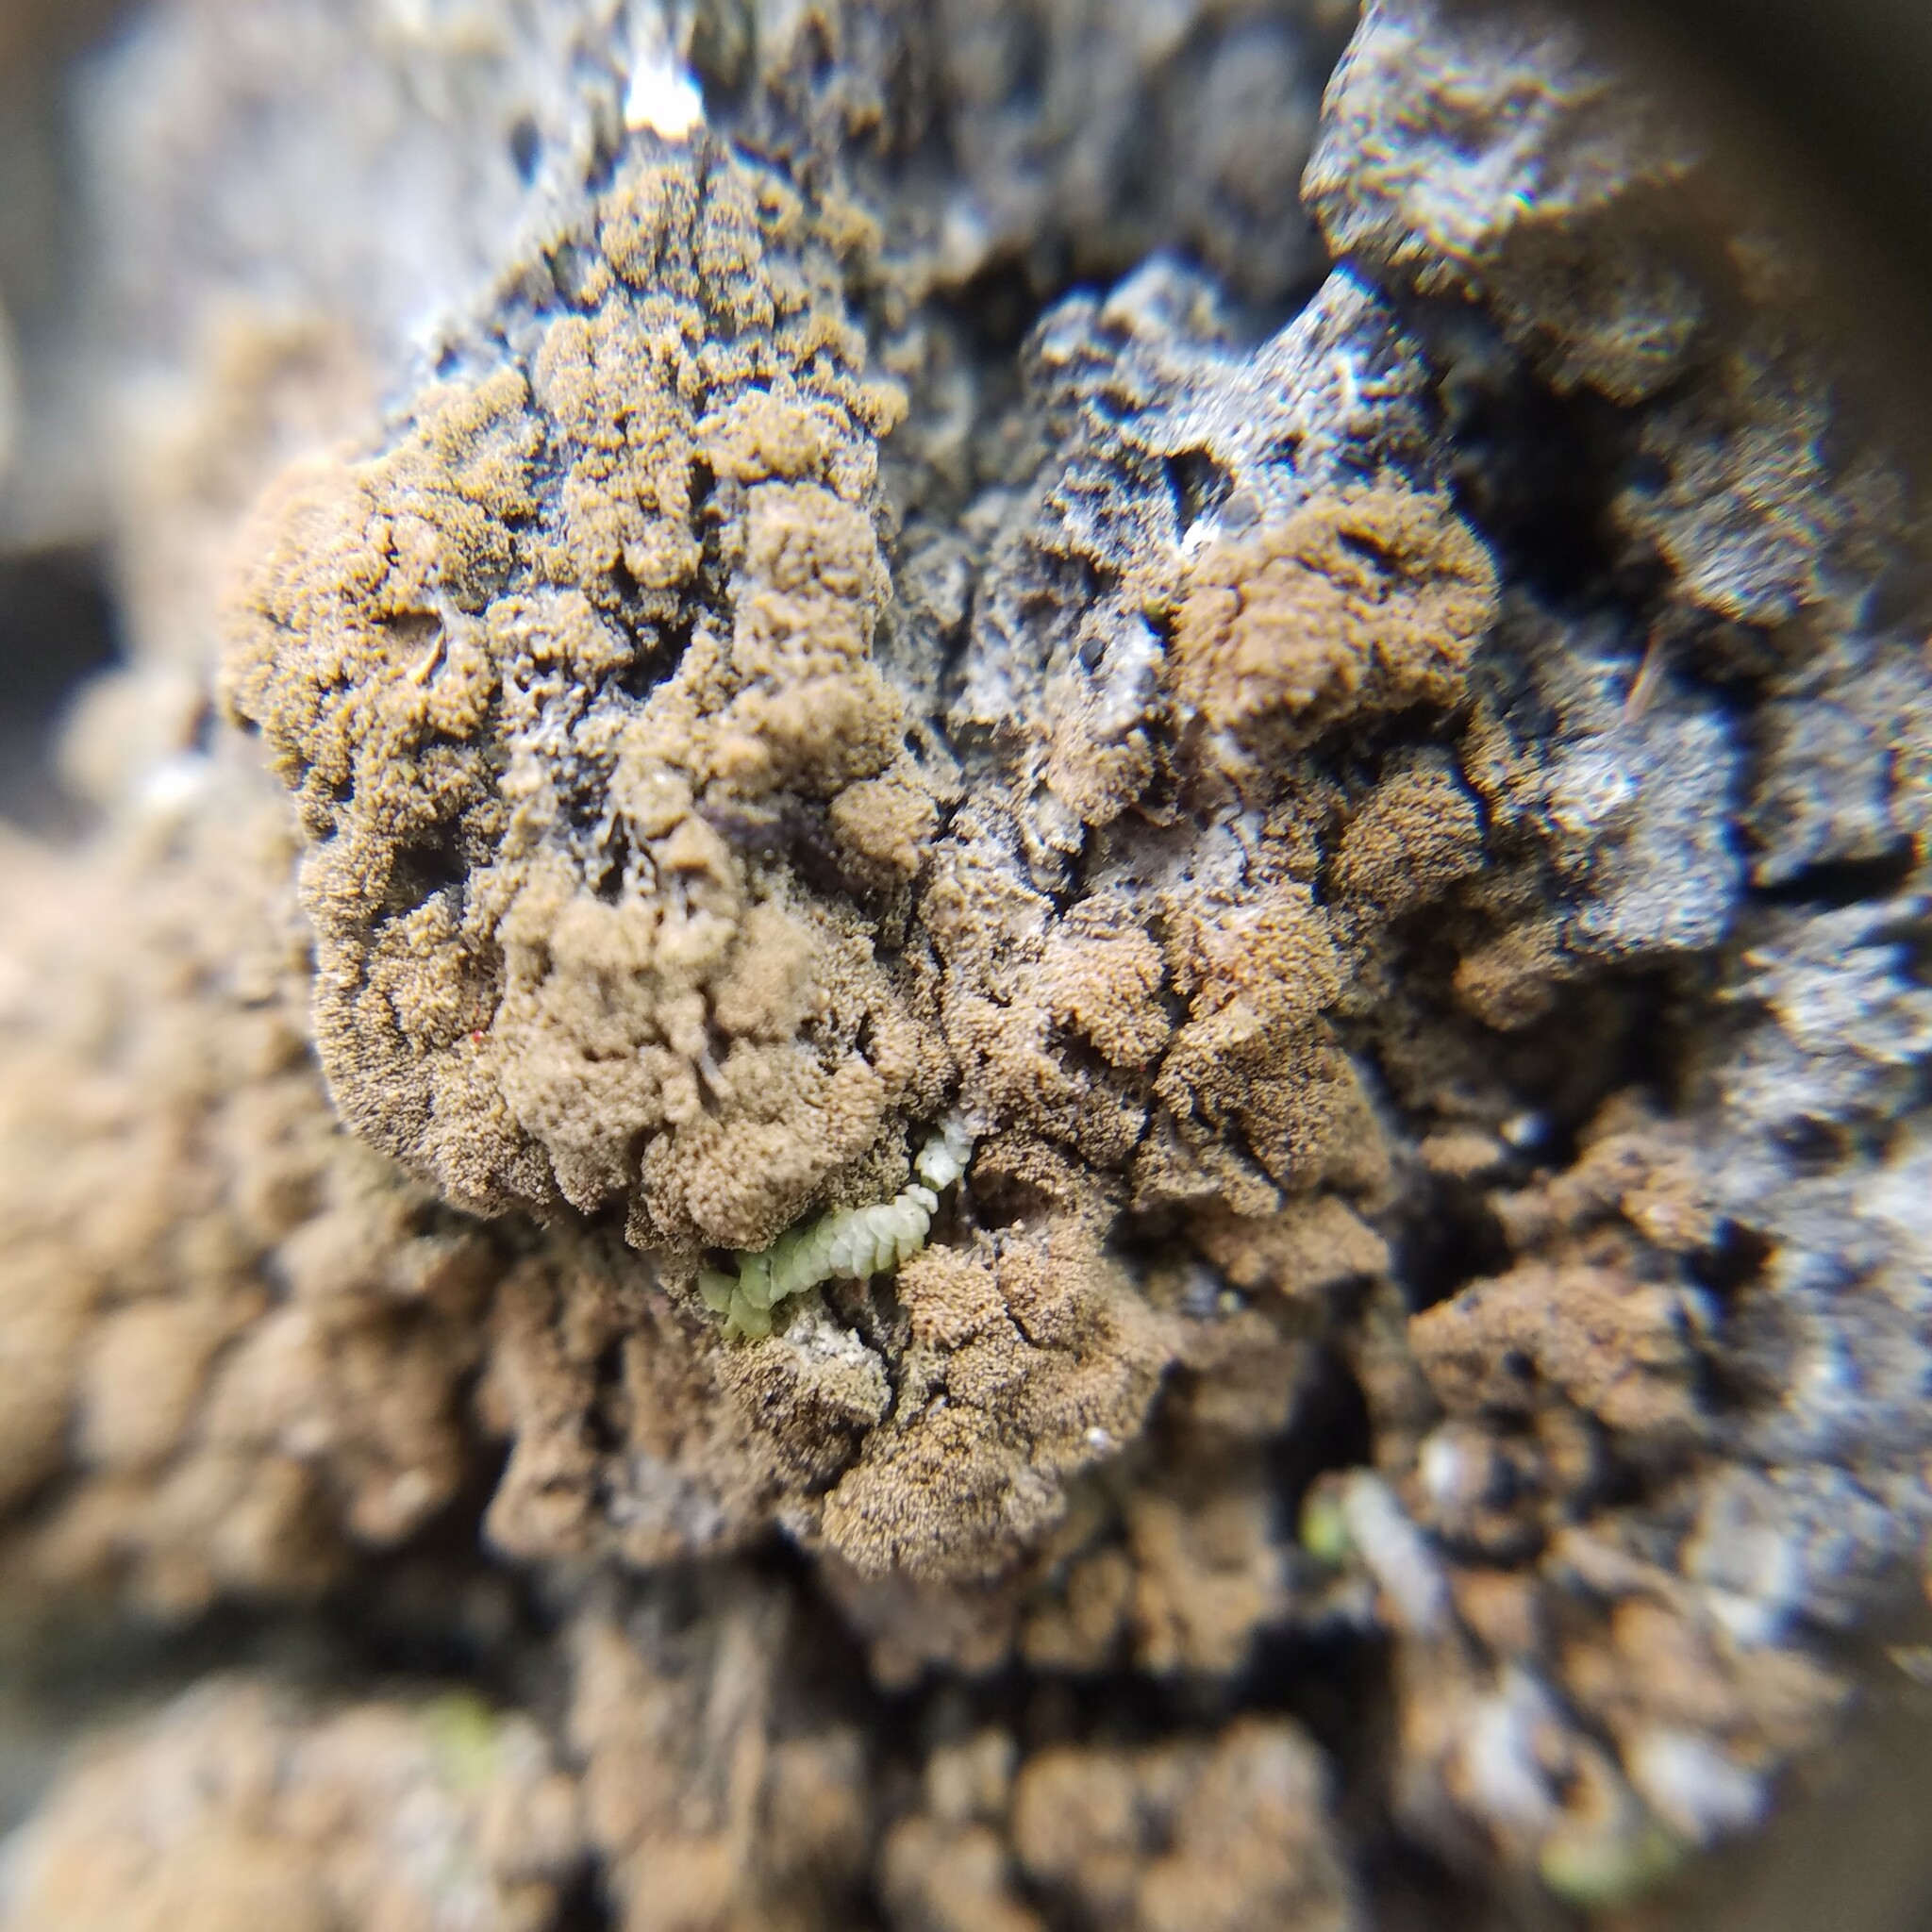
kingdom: Fungi
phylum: Ascomycota
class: Lecanoromycetes
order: Ostropales
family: Porinaceae
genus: Porina
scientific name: Porina scabrida
